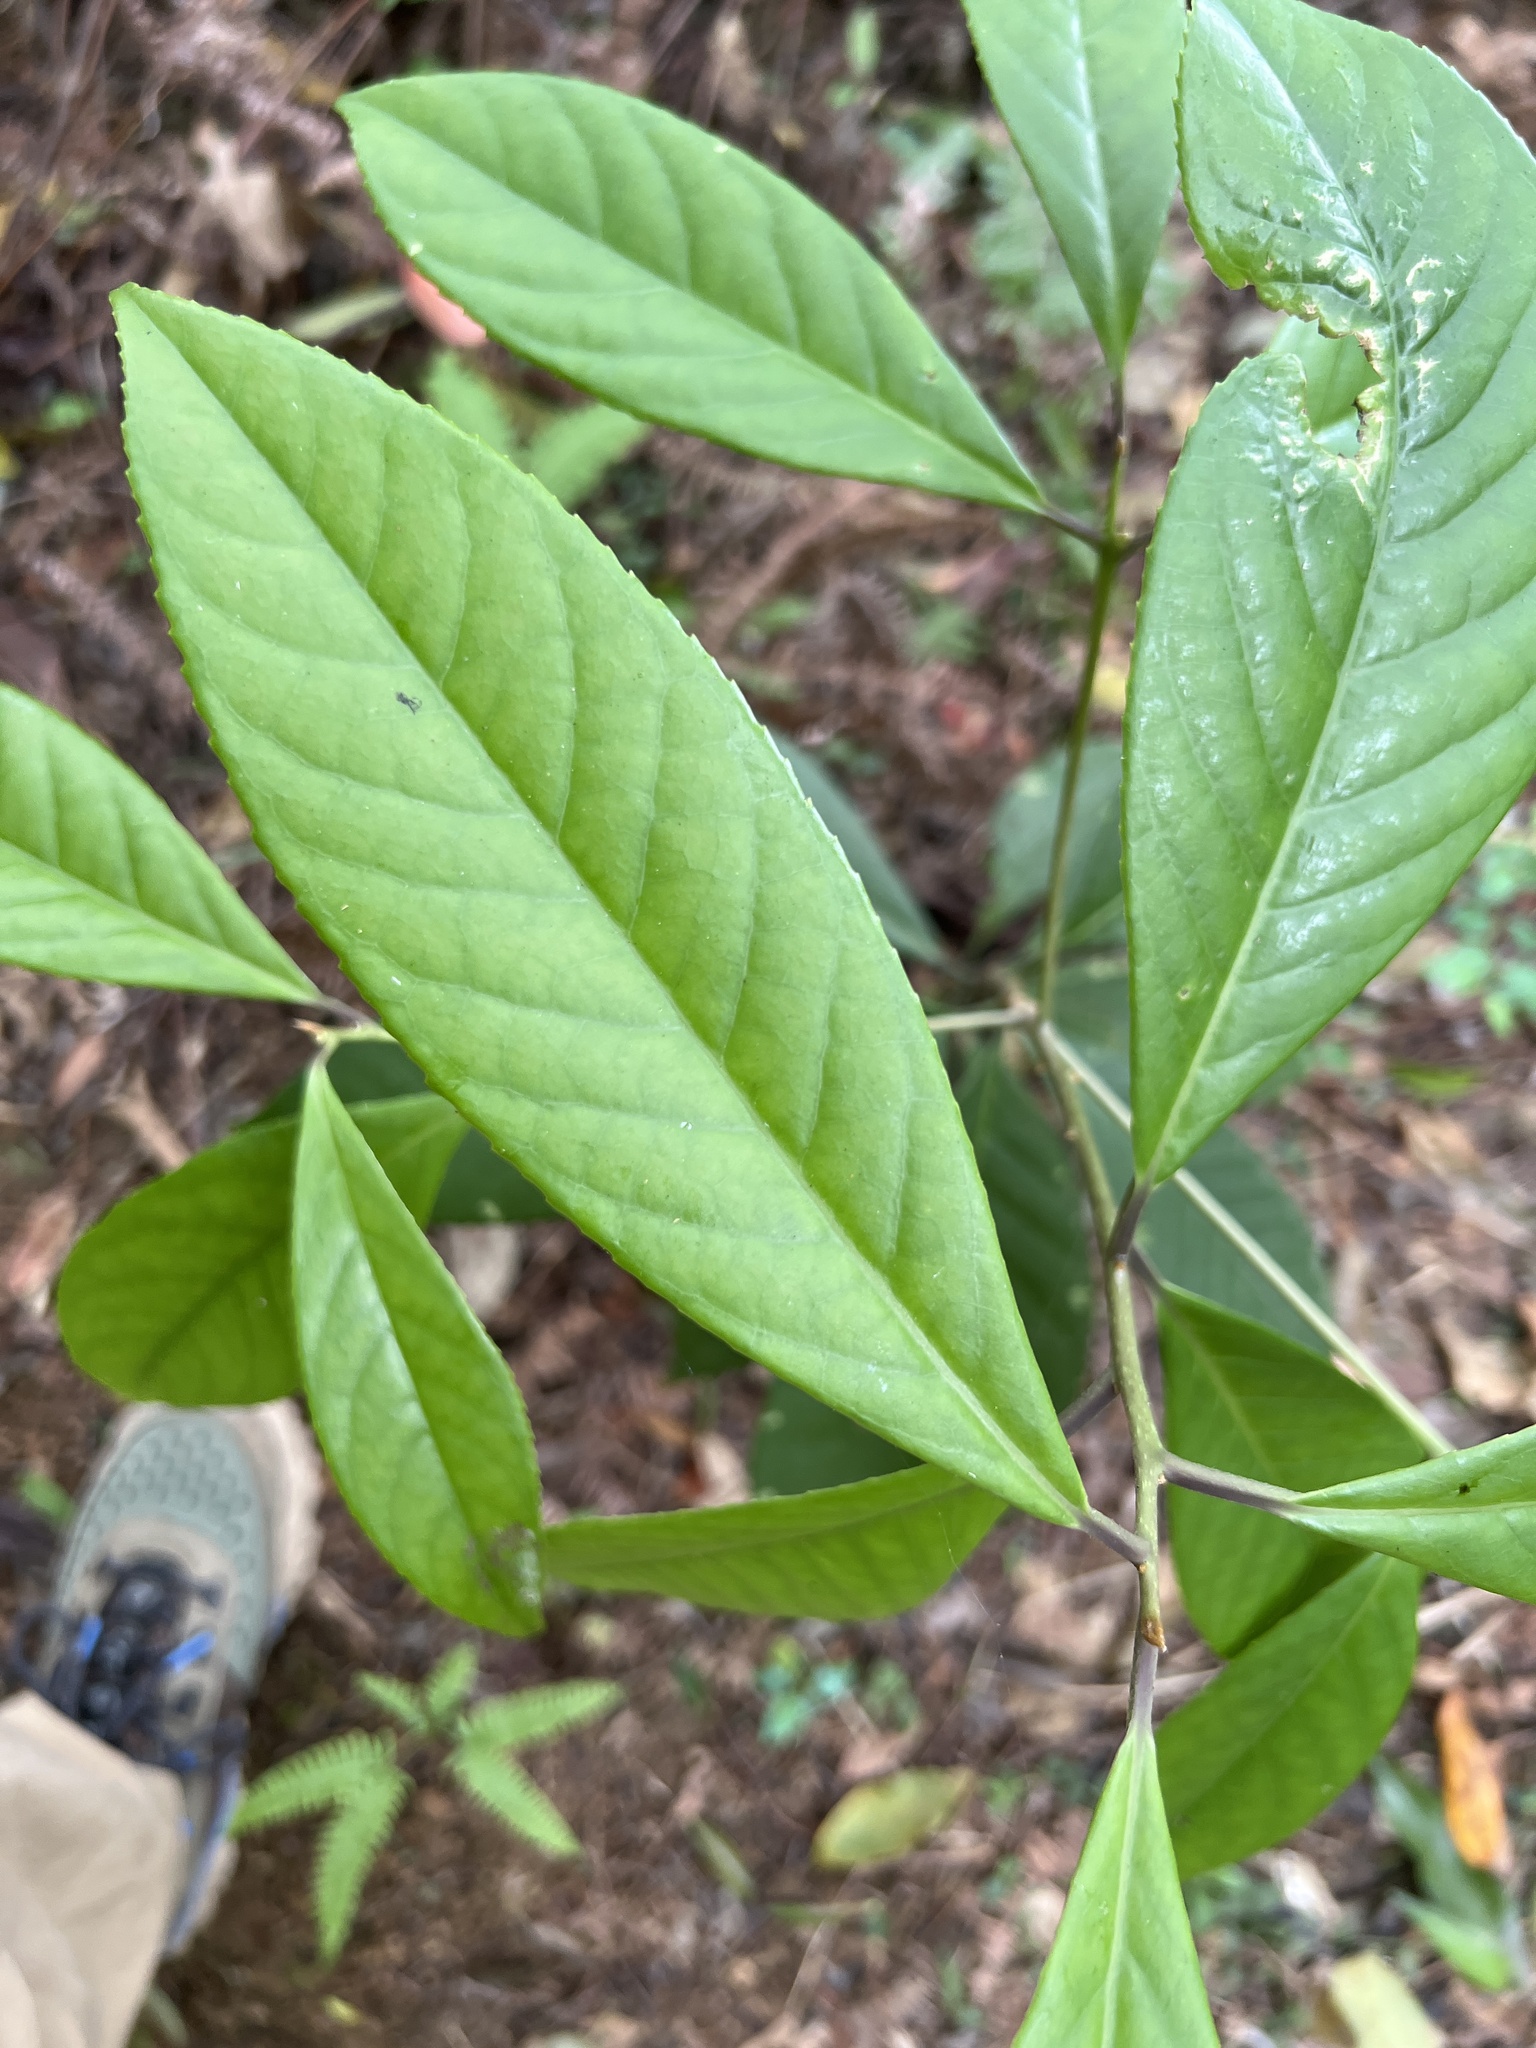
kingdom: Plantae
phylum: Tracheophyta
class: Magnoliopsida
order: Ericales
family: Symplocaceae
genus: Symplocos
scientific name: Symplocos acuminata
